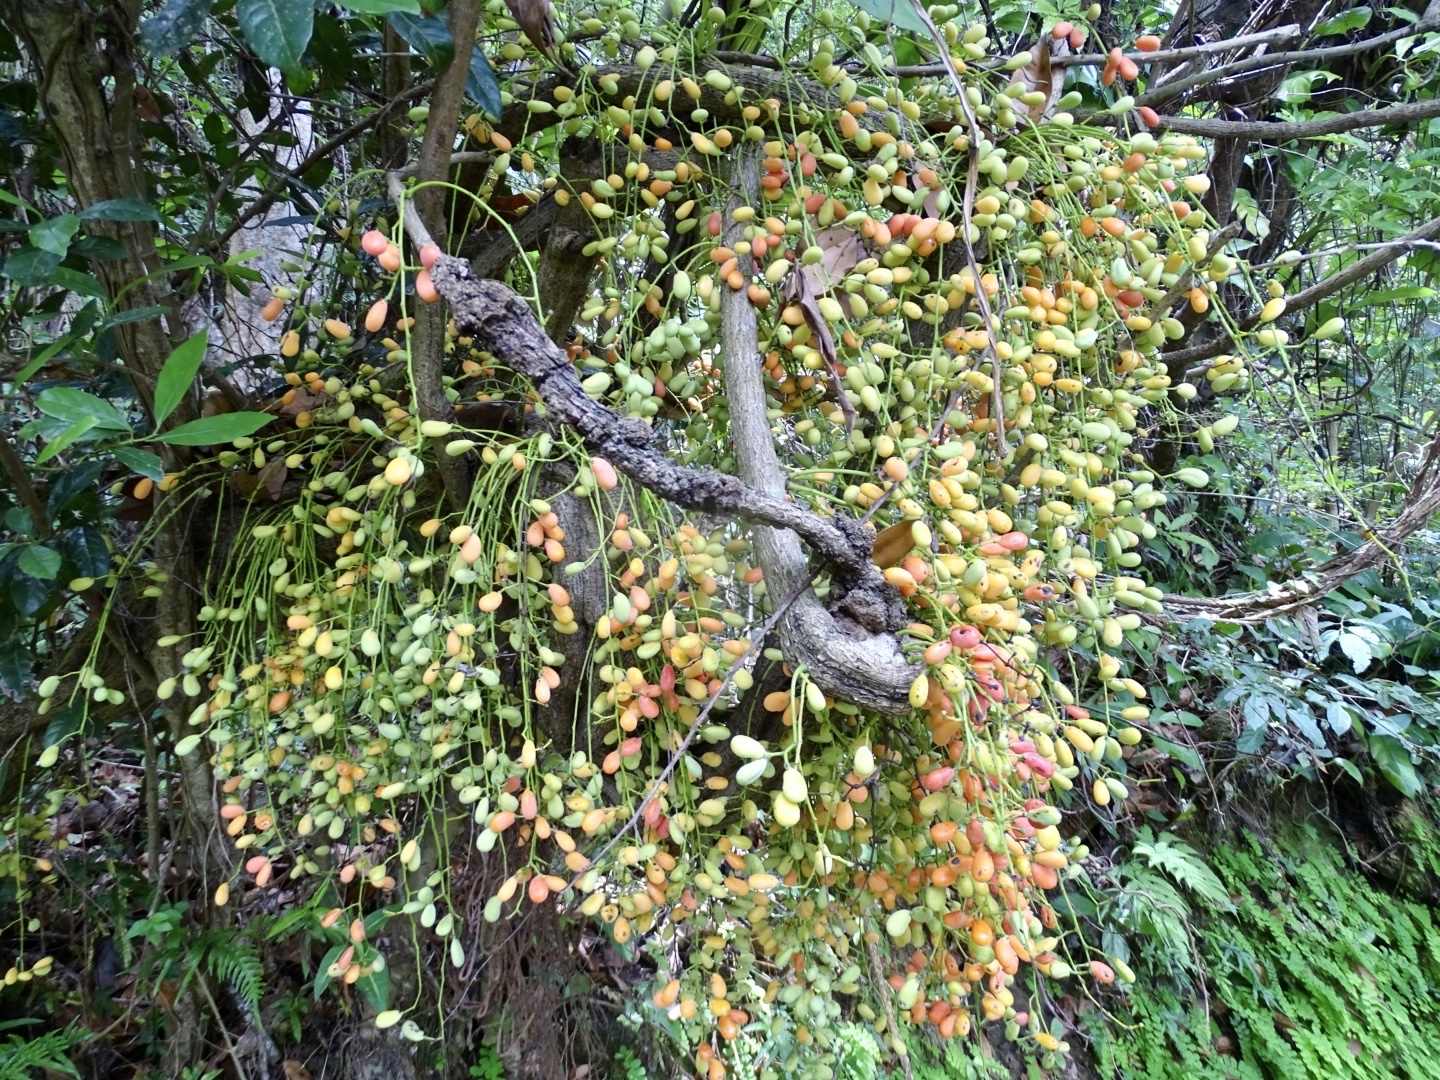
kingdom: Plantae
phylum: Tracheophyta
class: Magnoliopsida
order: Ranunculales
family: Menispermaceae
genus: Diploclisia
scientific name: Diploclisia glaucescens
